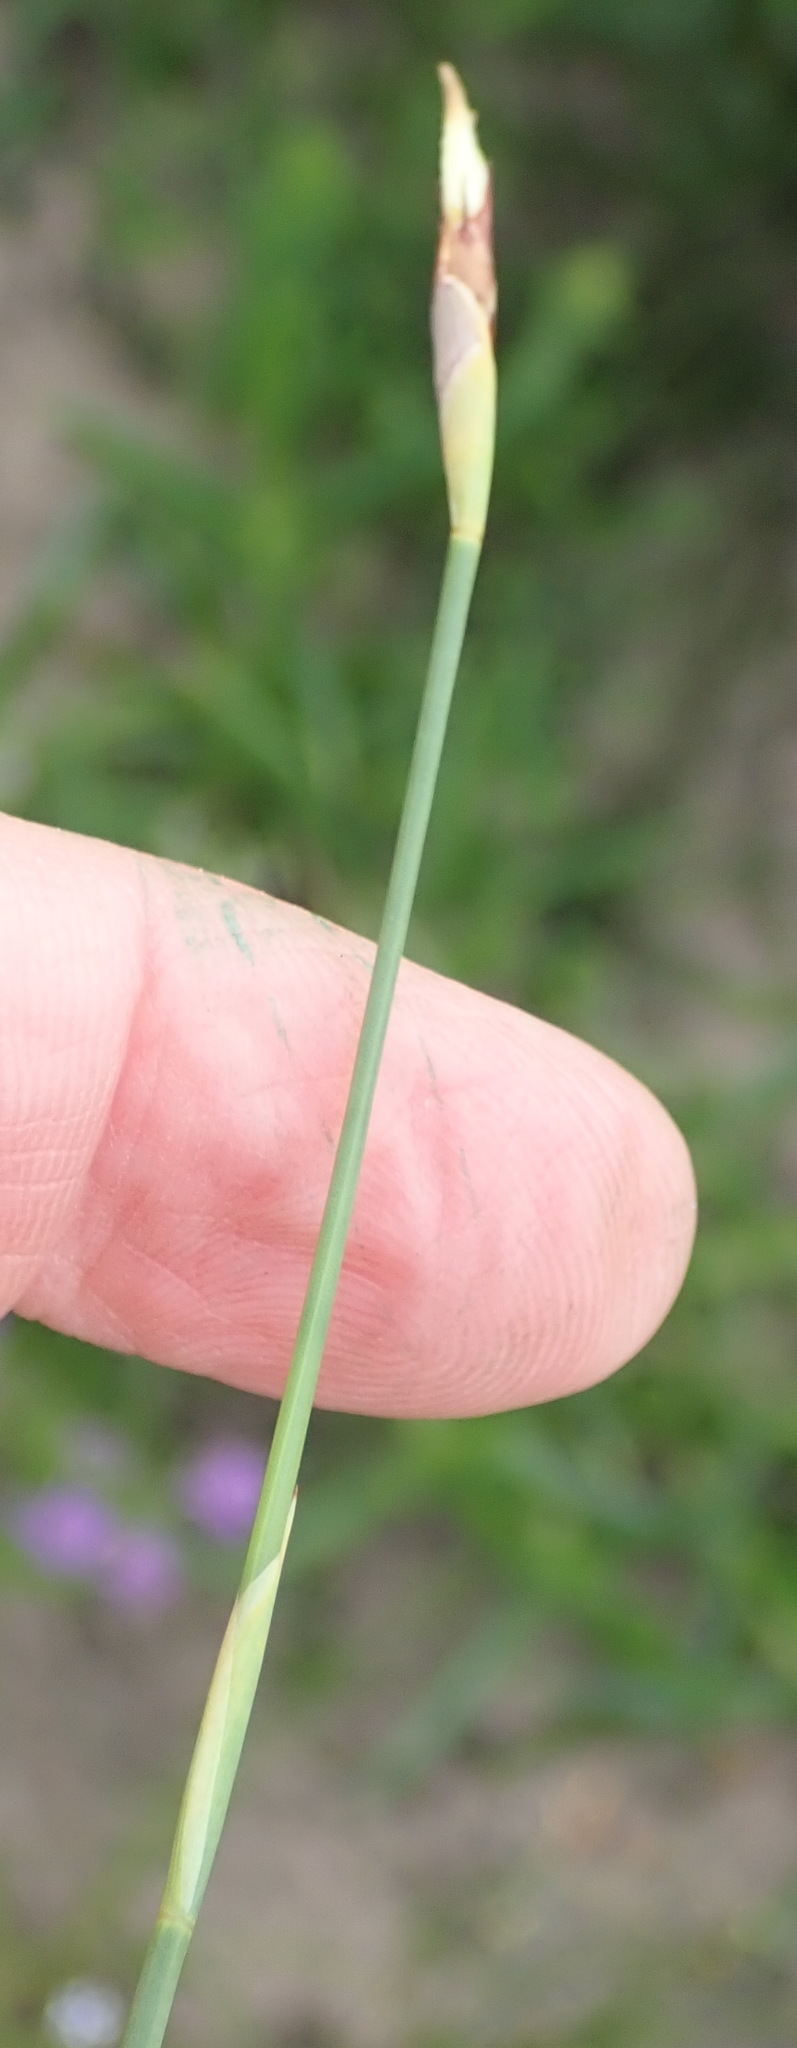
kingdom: Plantae
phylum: Tracheophyta
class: Liliopsida
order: Poales
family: Restionaceae
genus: Hypodiscus
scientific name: Hypodiscus willdenowia
